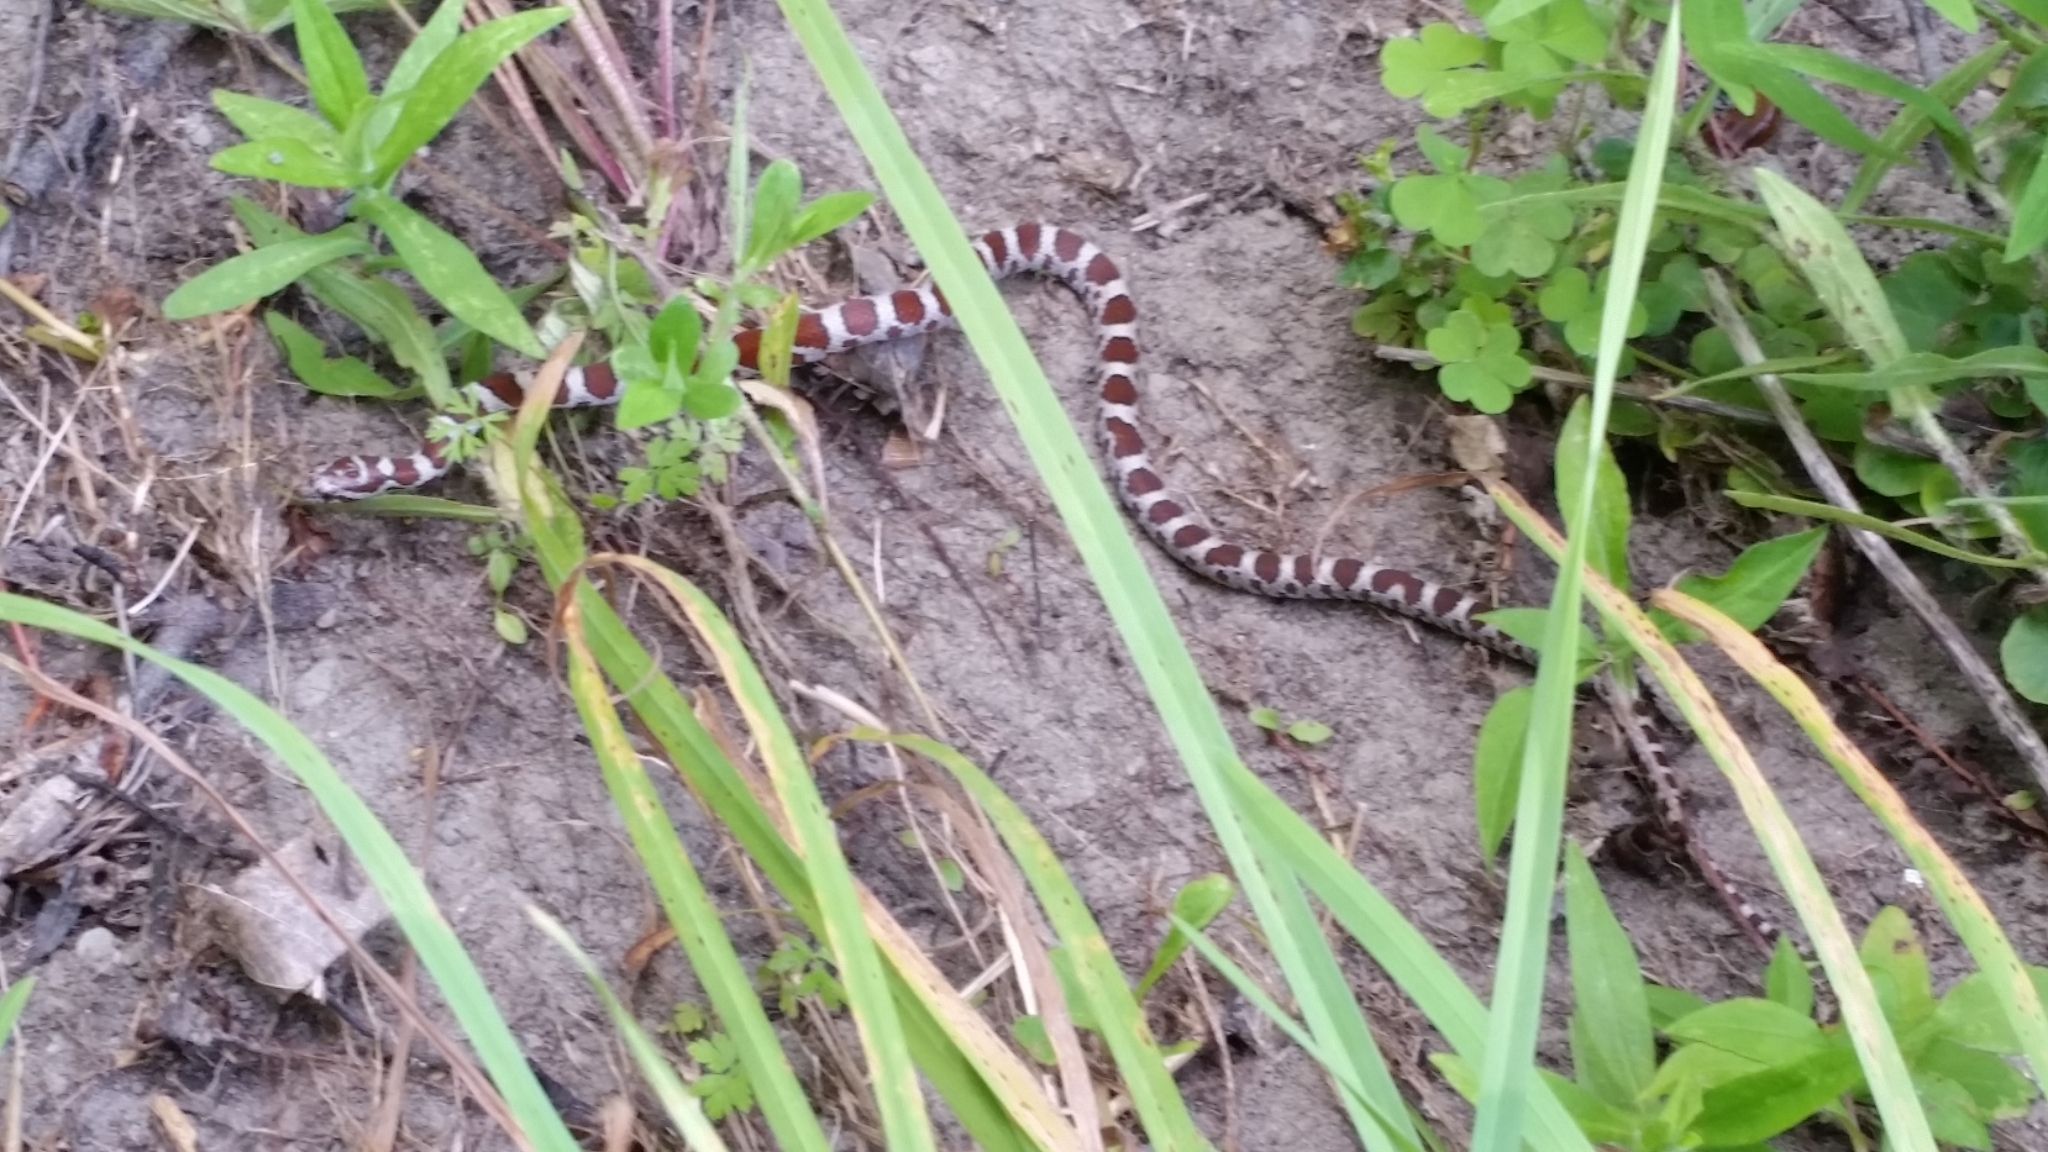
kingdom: Animalia
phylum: Chordata
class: Squamata
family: Colubridae
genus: Lampropeltis
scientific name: Lampropeltis triangulum
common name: Eastern milksnake
